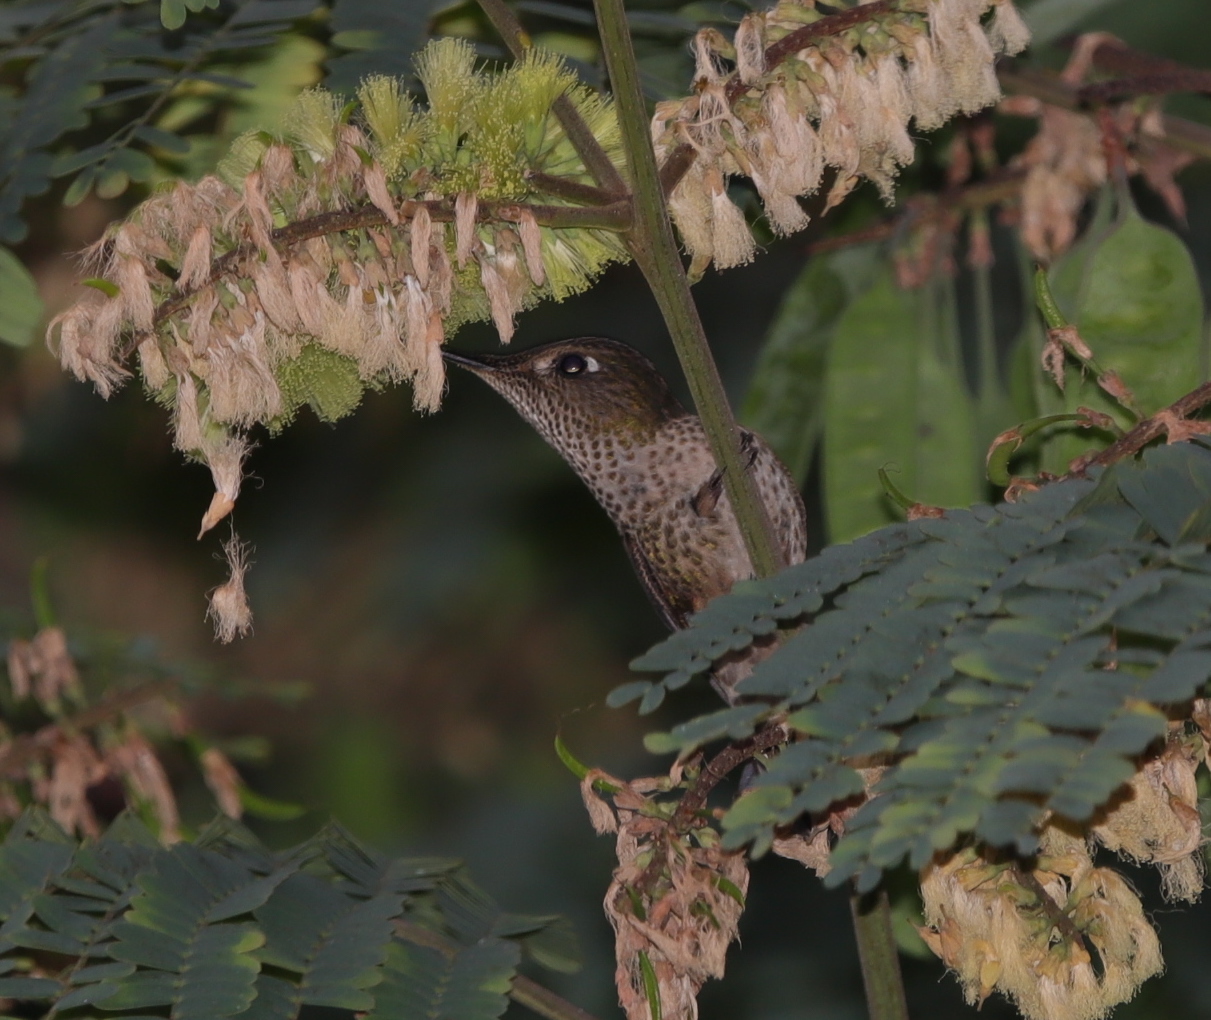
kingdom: Animalia
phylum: Chordata
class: Aves
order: Apodiformes
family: Trochilidae
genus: Sephanoides
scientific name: Sephanoides sephaniodes
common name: Green-backed firecrown
